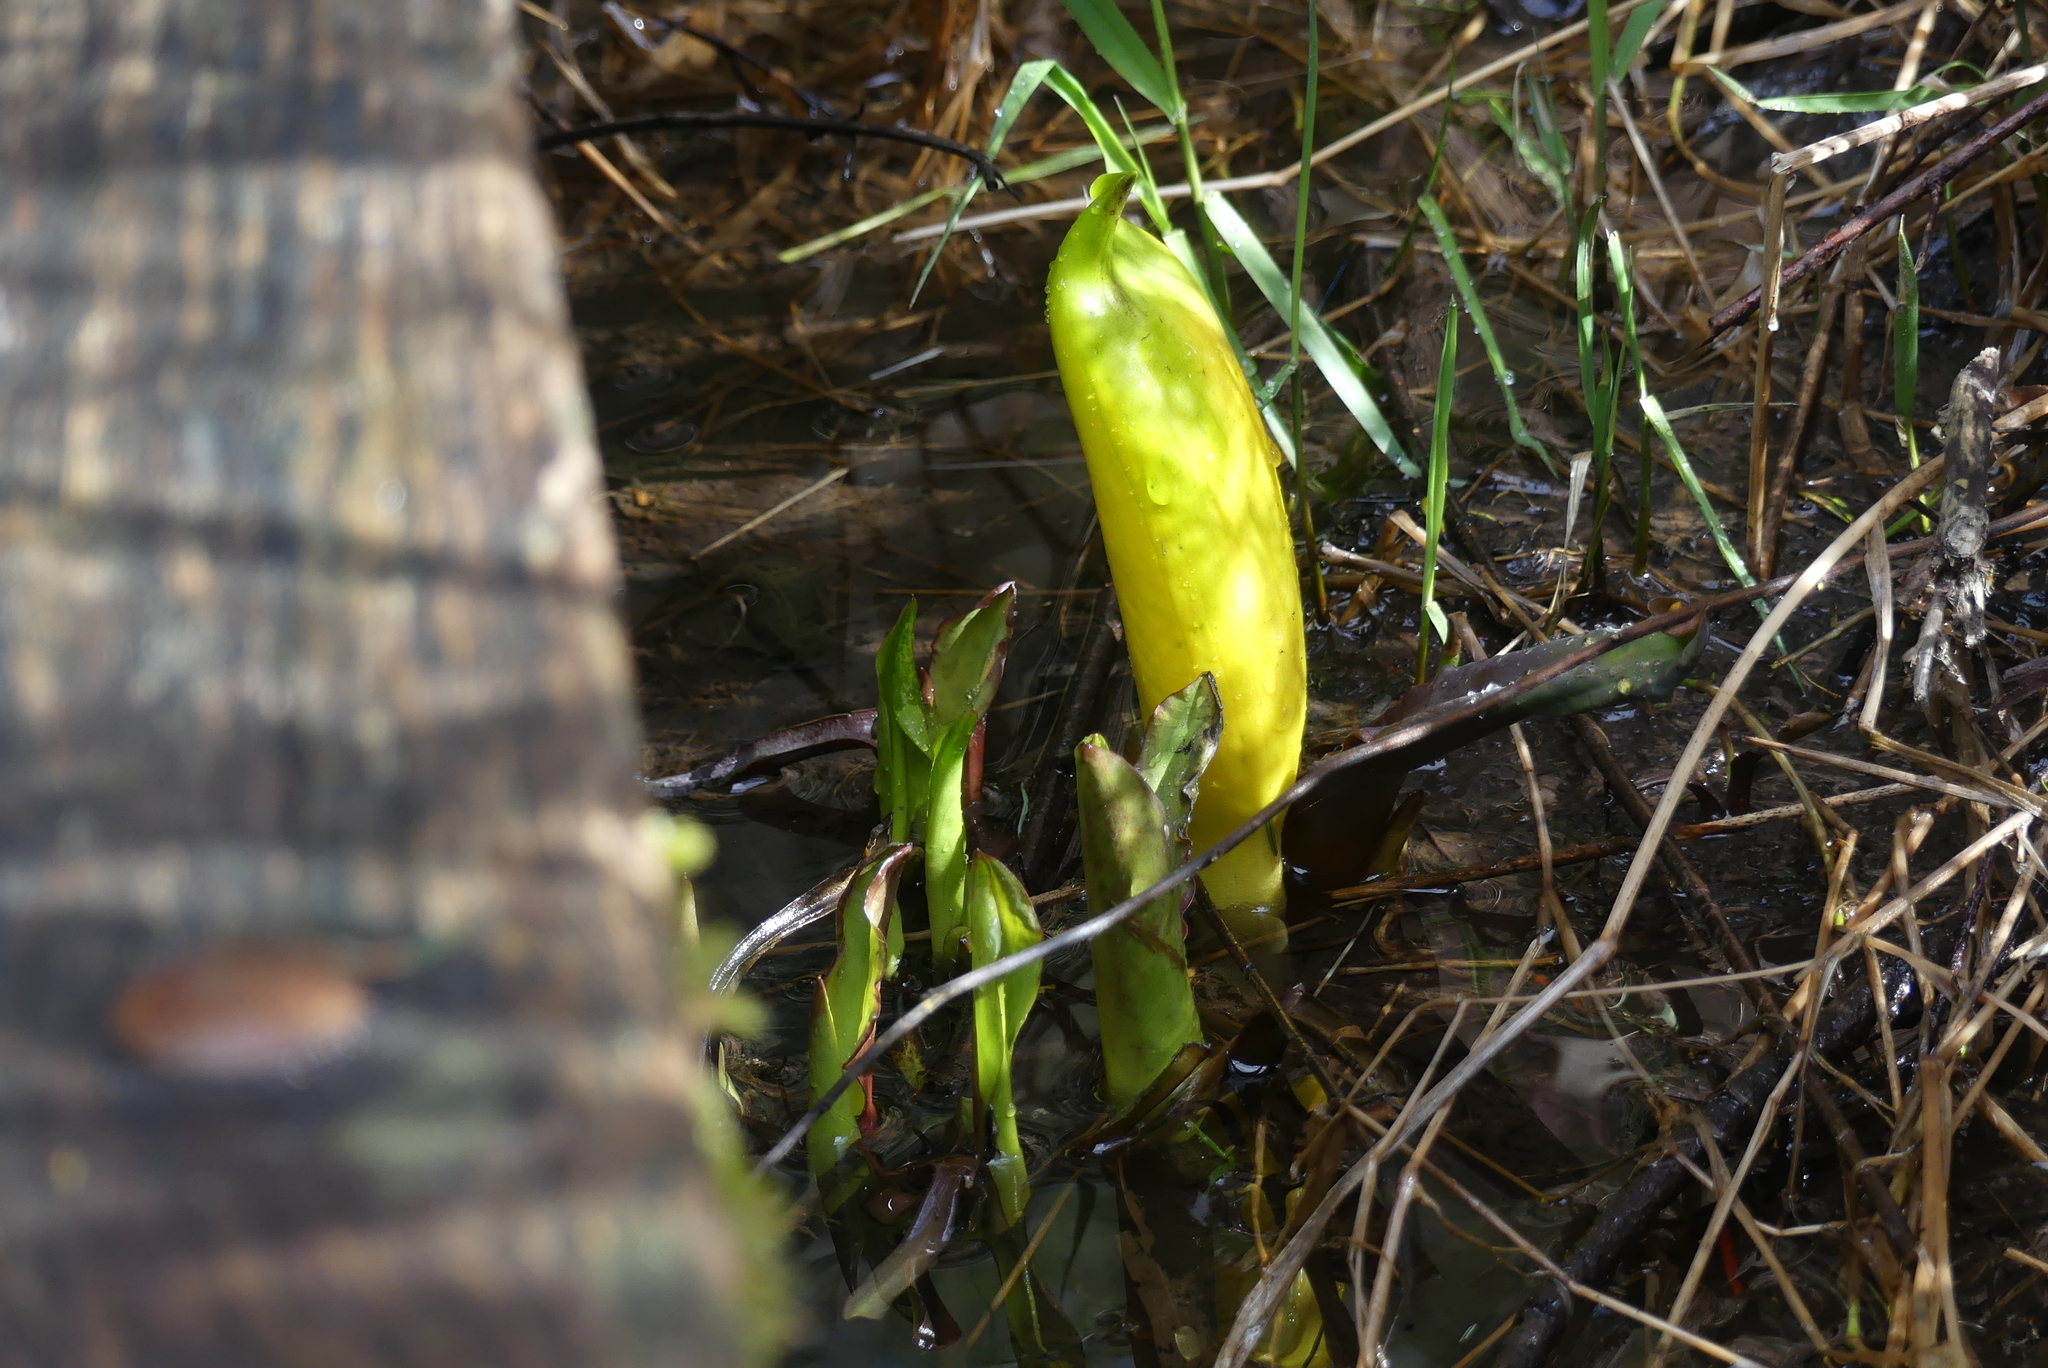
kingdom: Plantae
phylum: Tracheophyta
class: Liliopsida
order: Alismatales
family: Araceae
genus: Lysichiton
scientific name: Lysichiton americanus
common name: American skunk cabbage
